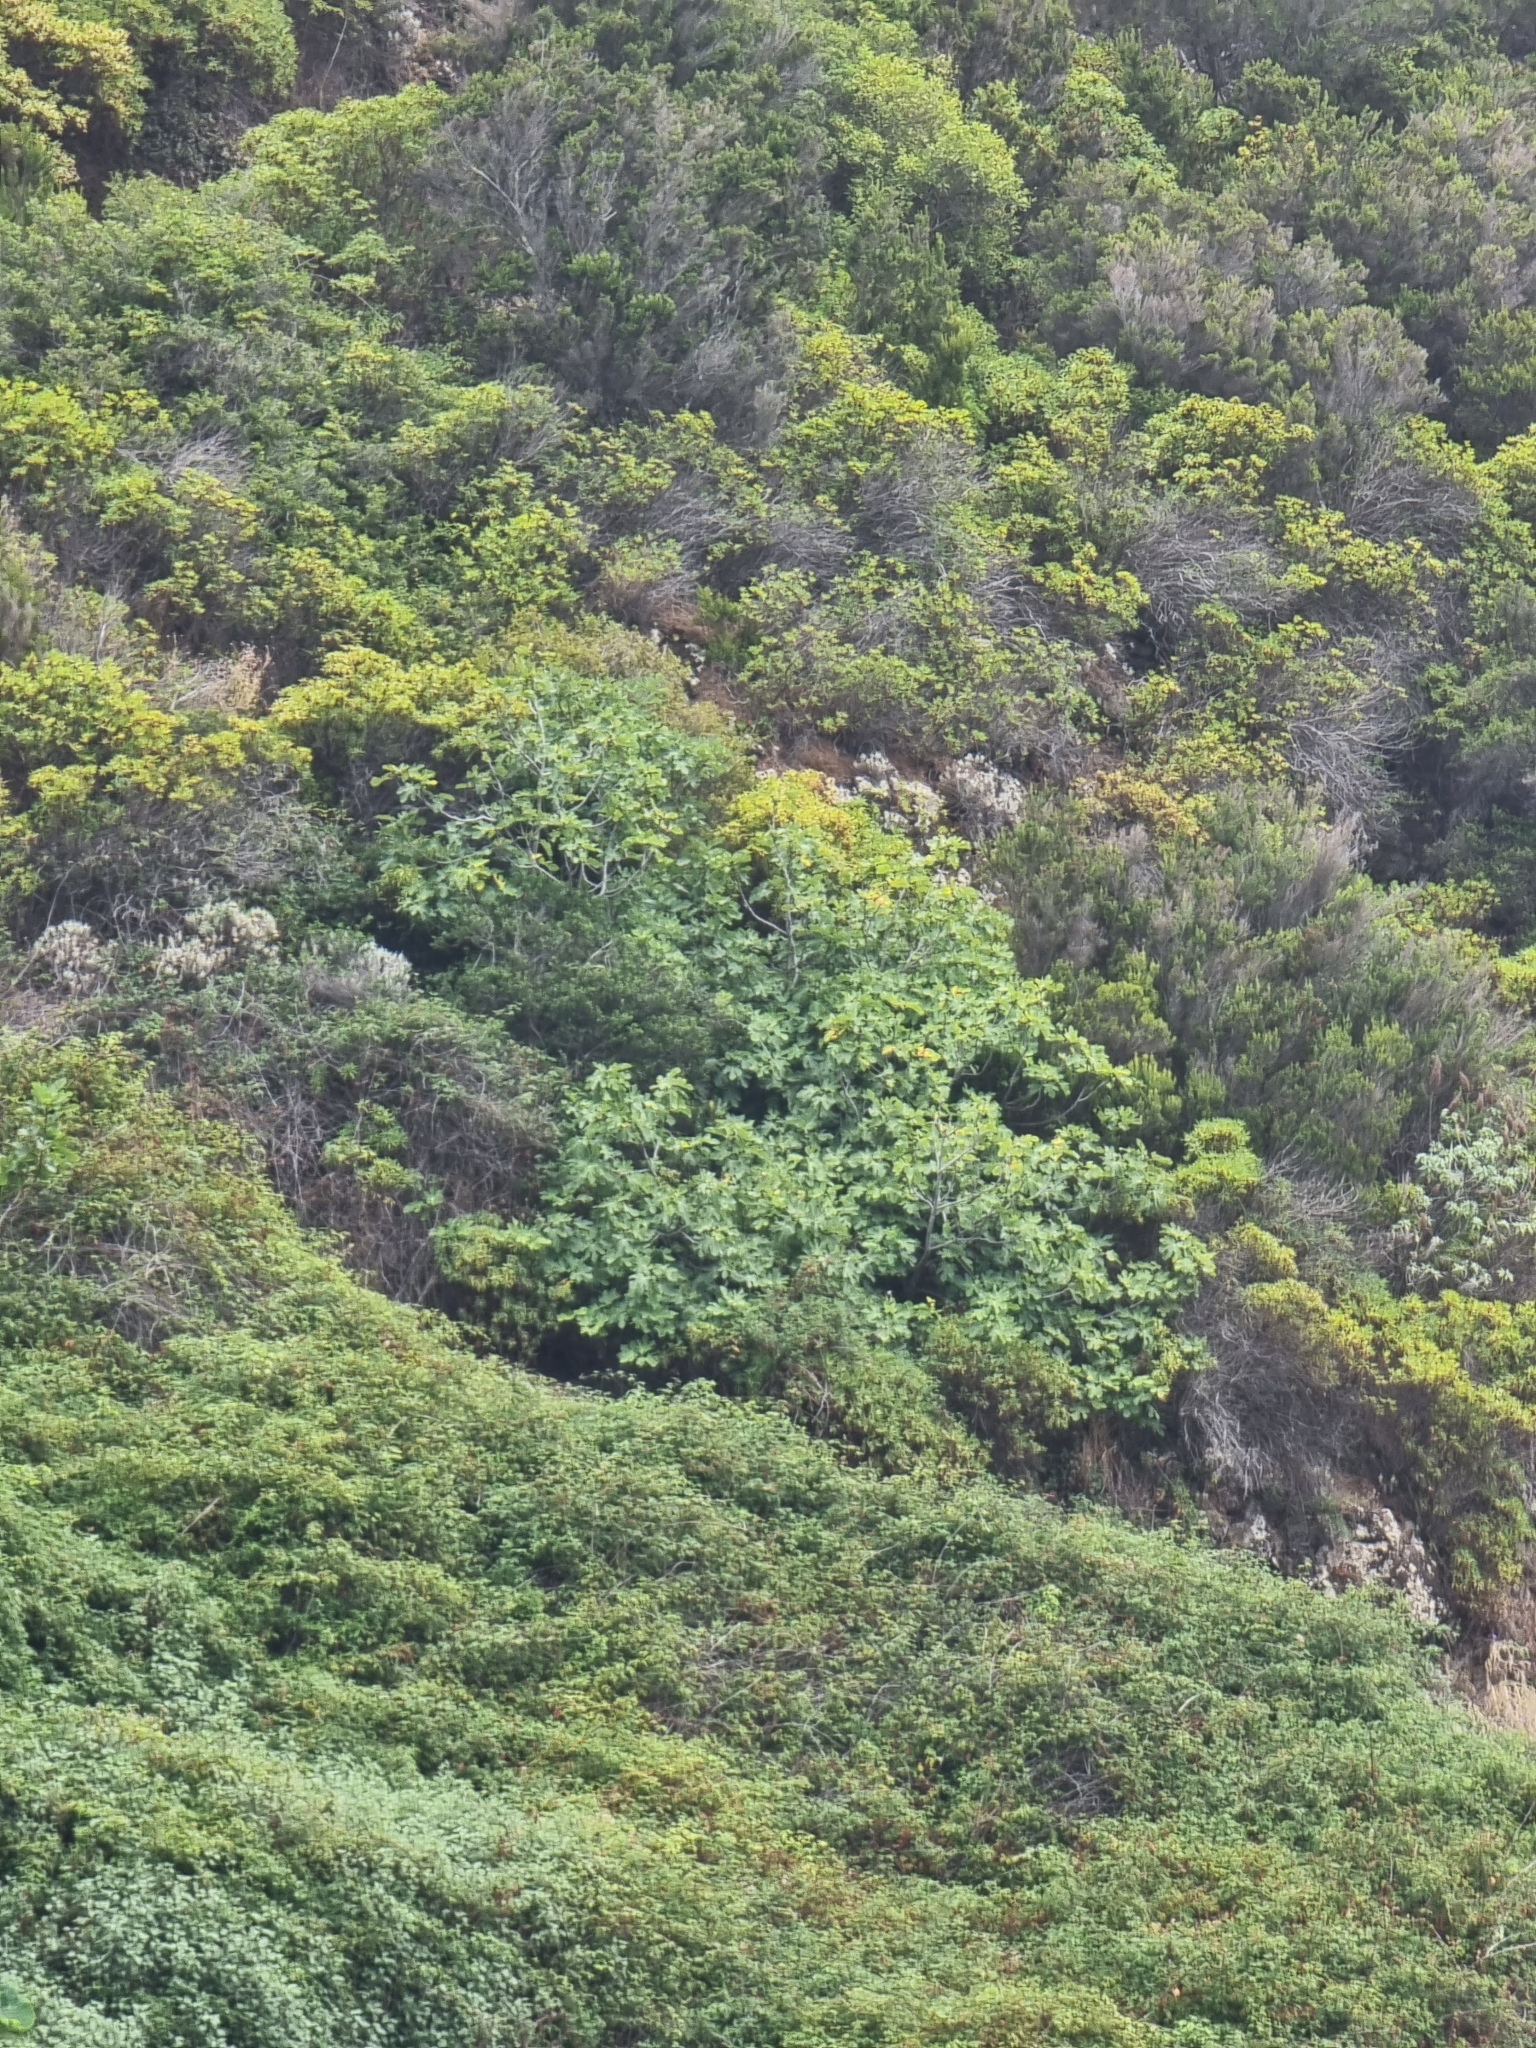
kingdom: Plantae
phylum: Tracheophyta
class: Magnoliopsida
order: Rosales
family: Moraceae
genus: Ficus
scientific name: Ficus carica
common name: Fig
